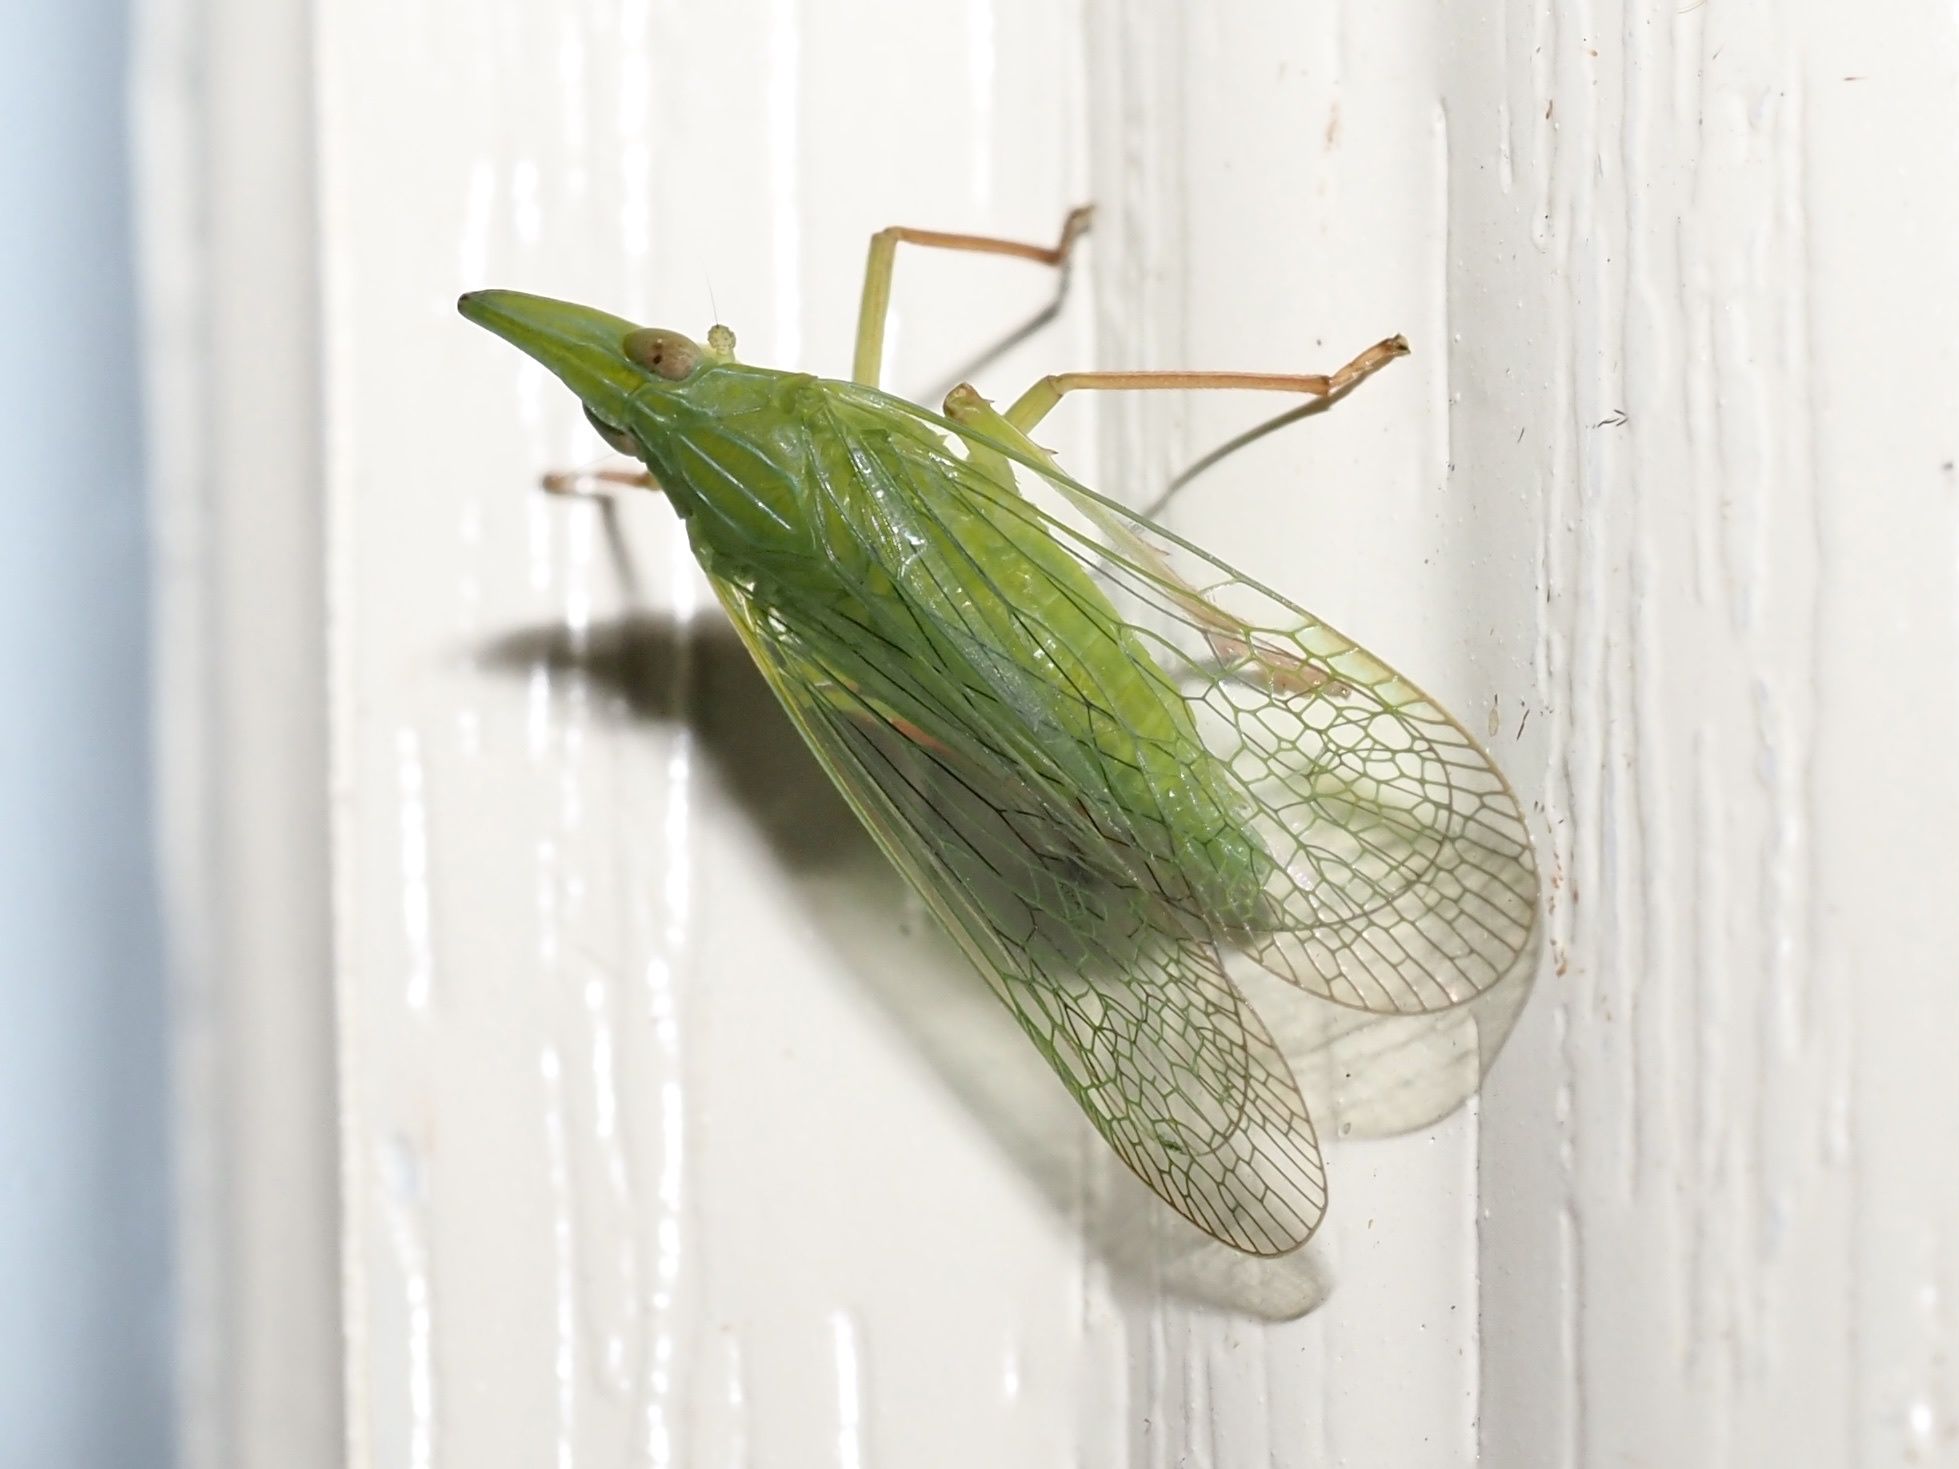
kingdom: Animalia
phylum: Arthropoda
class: Insecta
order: Hemiptera
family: Dictyopharidae
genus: Rhynchomitra
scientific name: Rhynchomitra microrhina
